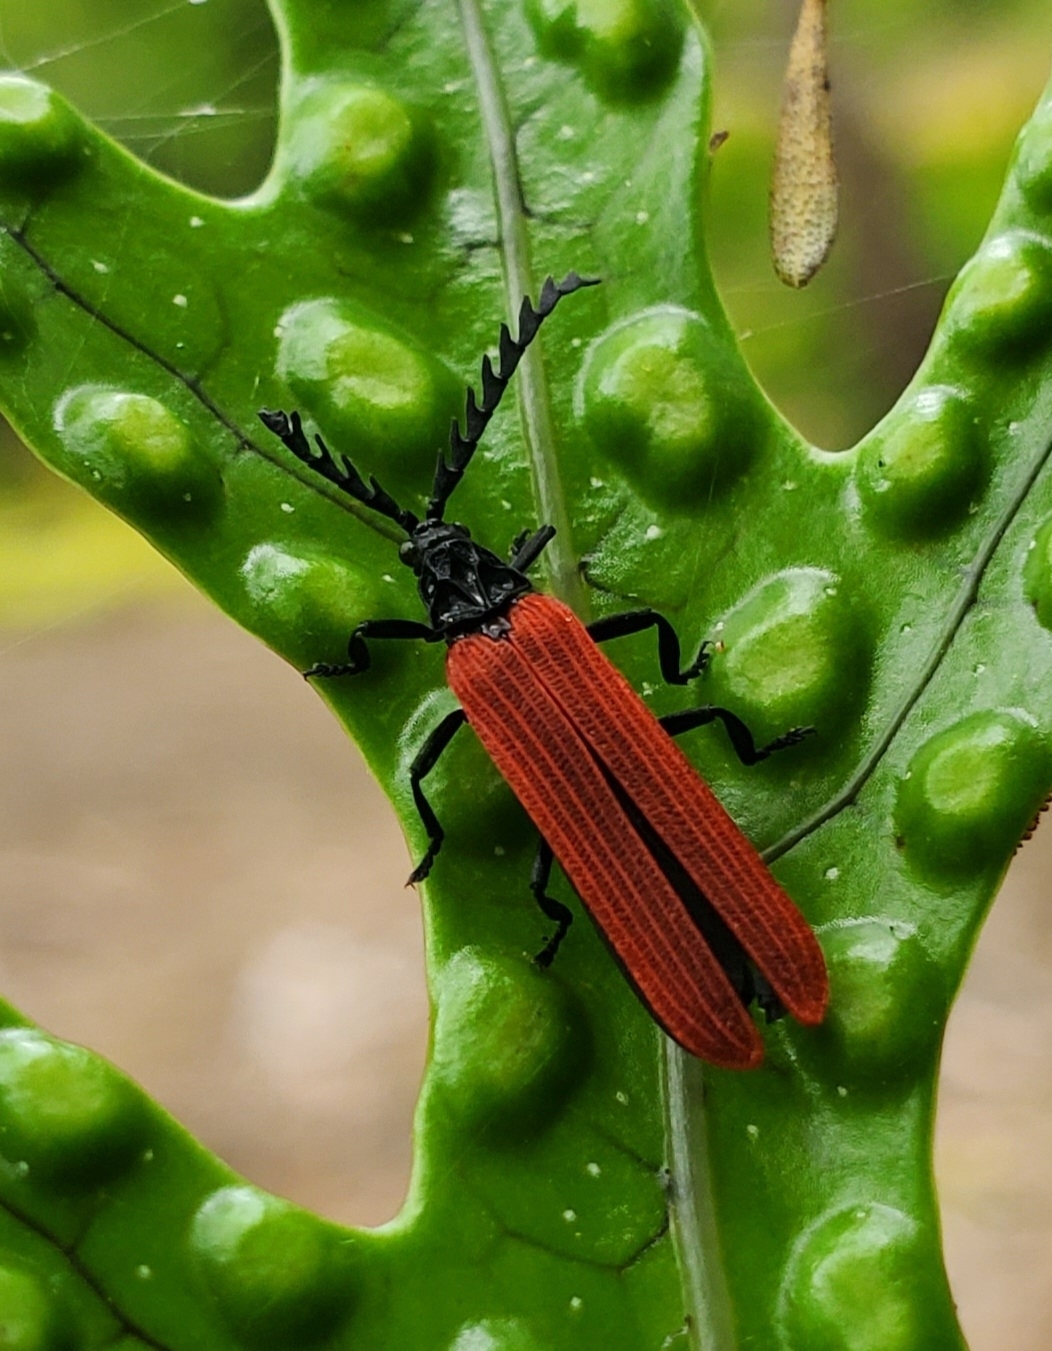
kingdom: Animalia
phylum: Arthropoda
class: Insecta
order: Coleoptera
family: Lycidae
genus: Porrostoma
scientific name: Porrostoma rufipenne
